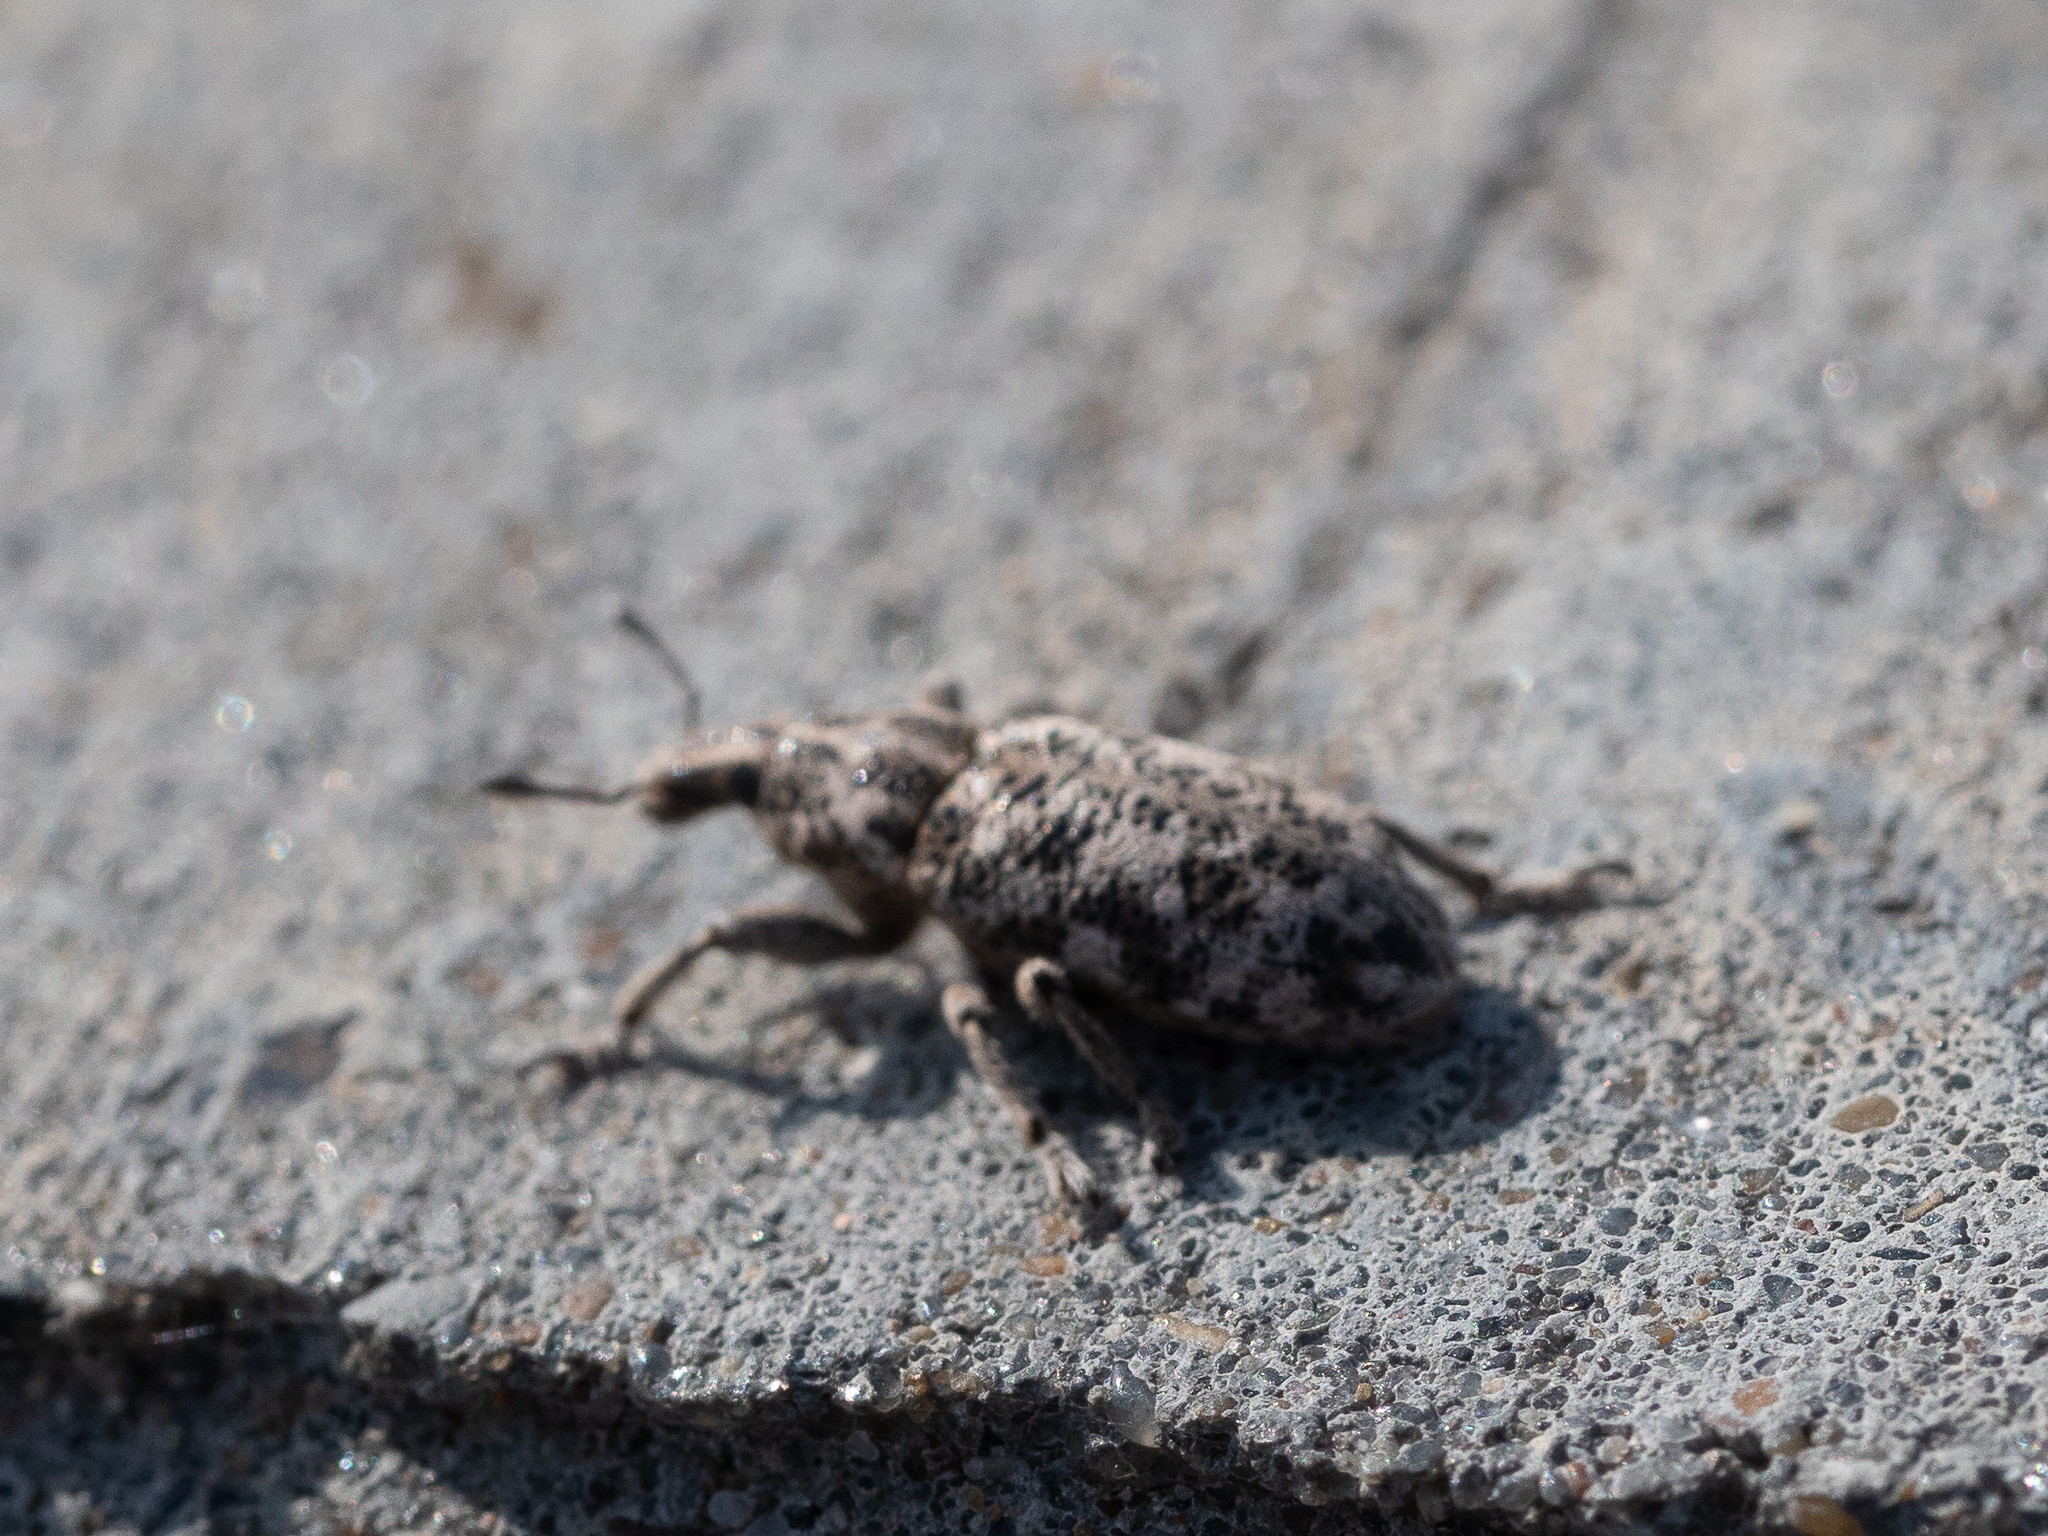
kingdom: Animalia
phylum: Arthropoda
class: Insecta
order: Coleoptera
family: Curculionidae
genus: Cyphocleonus
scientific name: Cyphocleonus dealbatus
